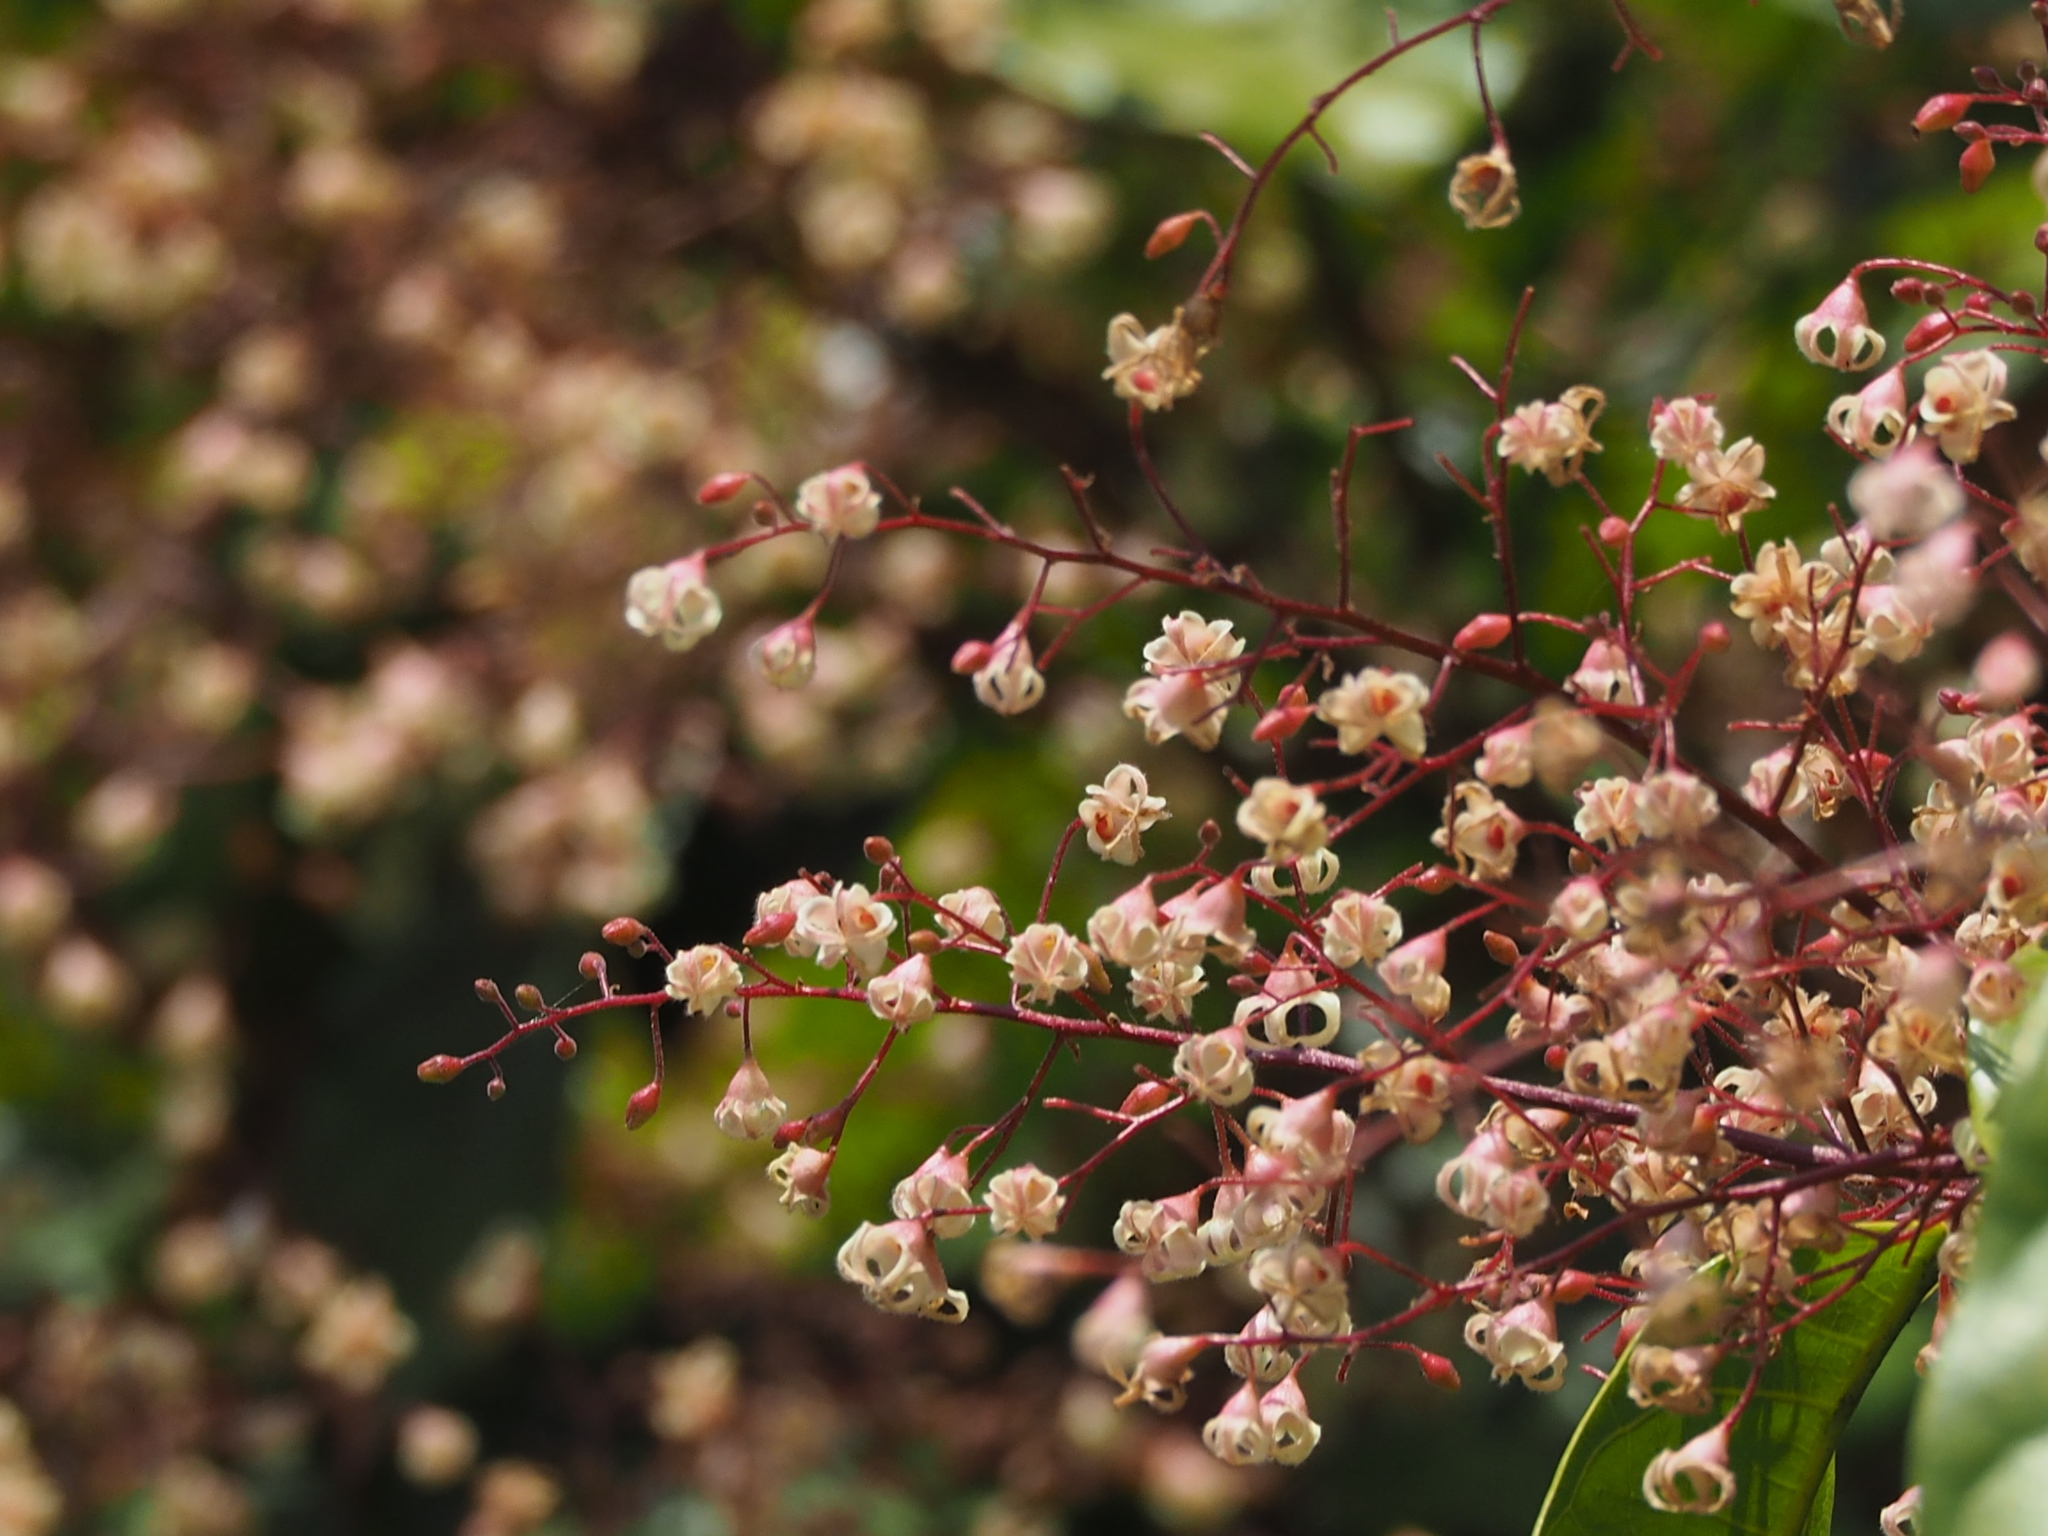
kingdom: Plantae
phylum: Tracheophyta
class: Magnoliopsida
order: Malvales
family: Malvaceae
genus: Sterculia
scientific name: Sterculia monosperma
